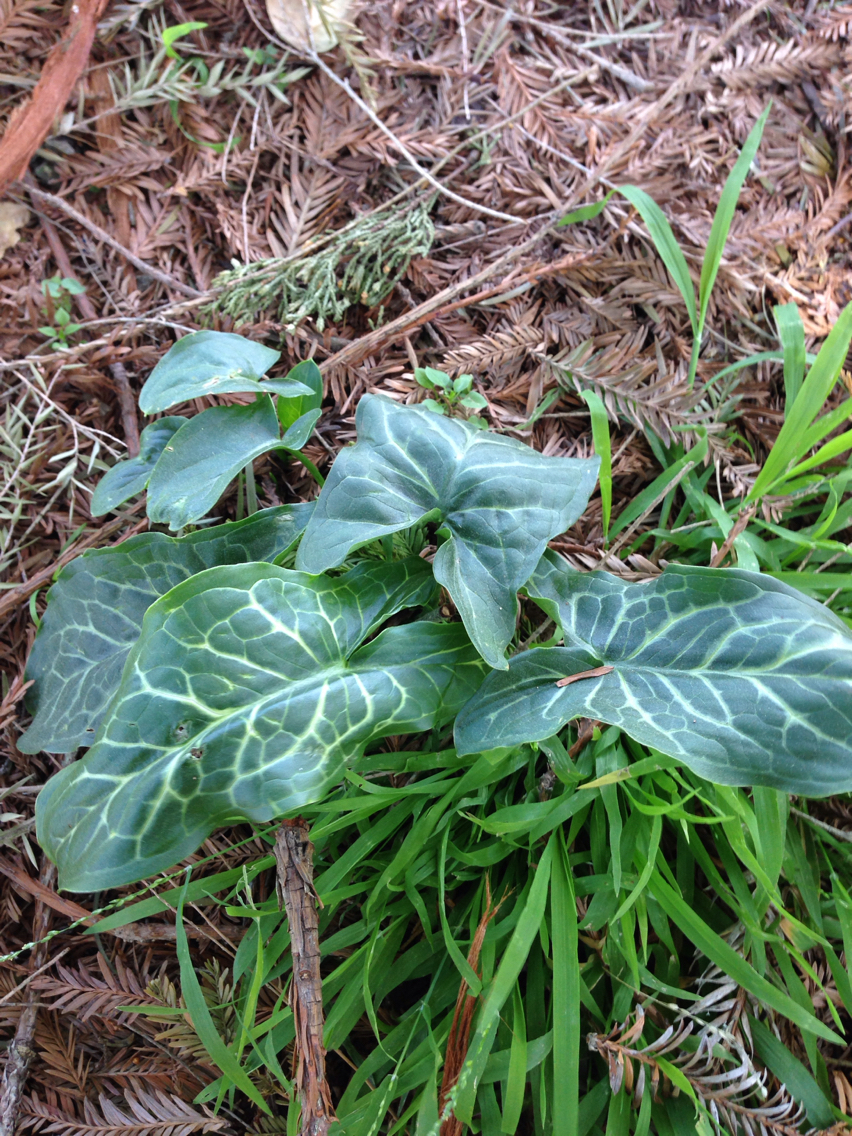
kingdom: Plantae
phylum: Tracheophyta
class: Liliopsida
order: Alismatales
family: Araceae
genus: Arum
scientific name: Arum italicum
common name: Italian lords-and-ladies
